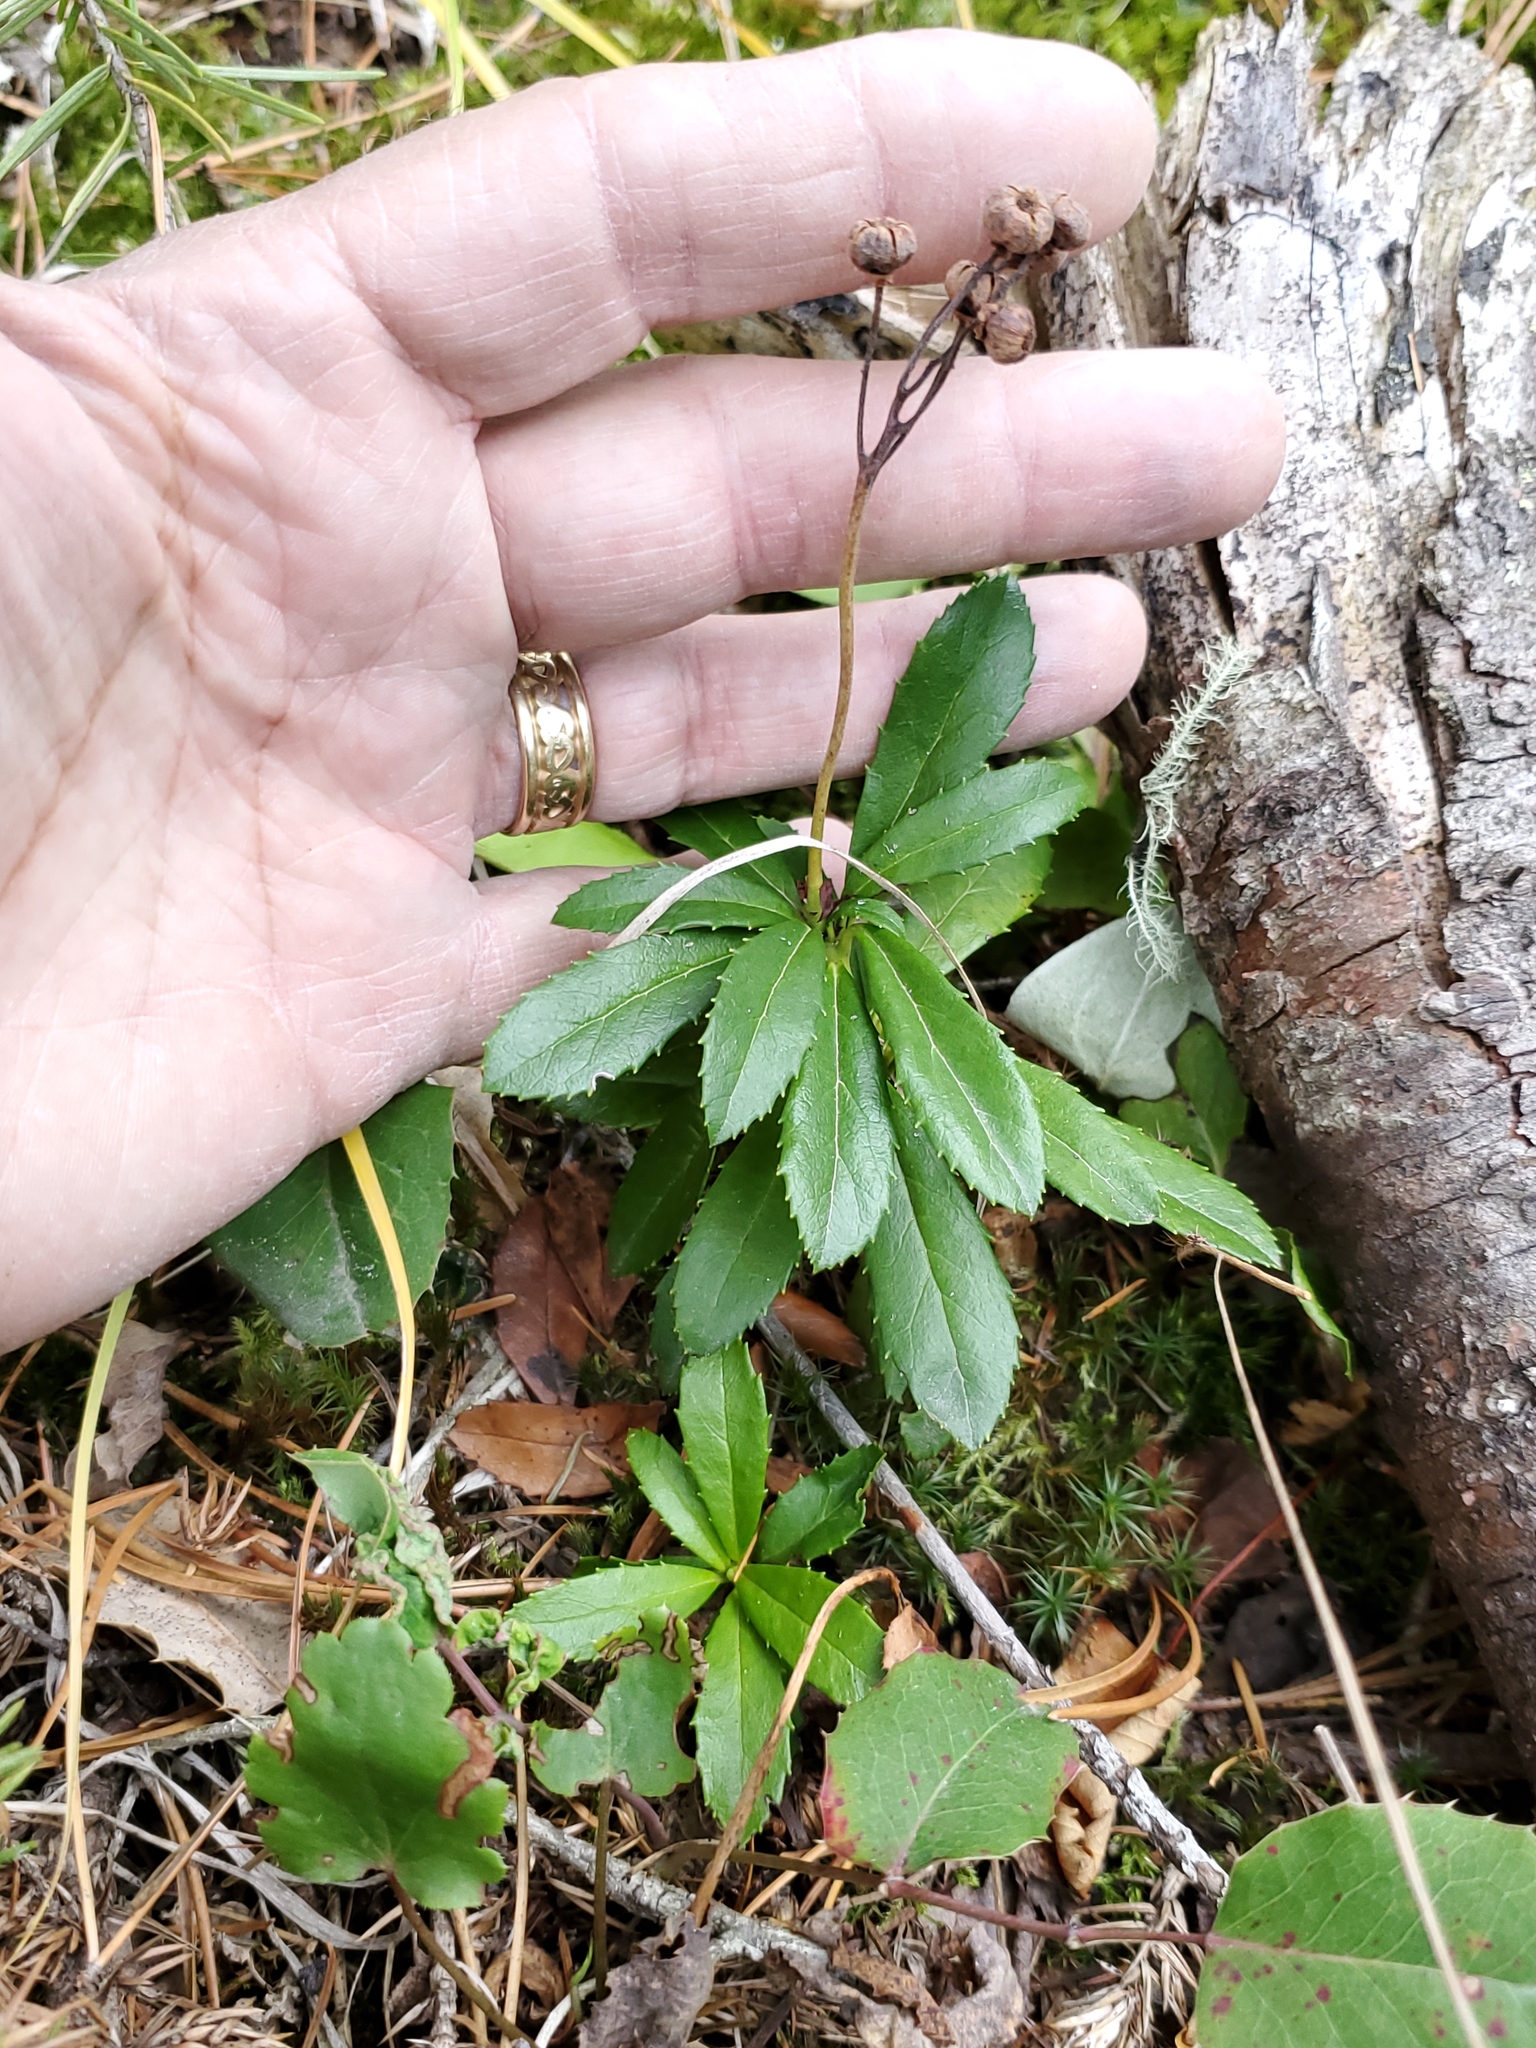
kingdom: Plantae
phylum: Tracheophyta
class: Magnoliopsida
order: Ericales
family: Ericaceae
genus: Chimaphila
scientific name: Chimaphila umbellata
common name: Pipsissewa
